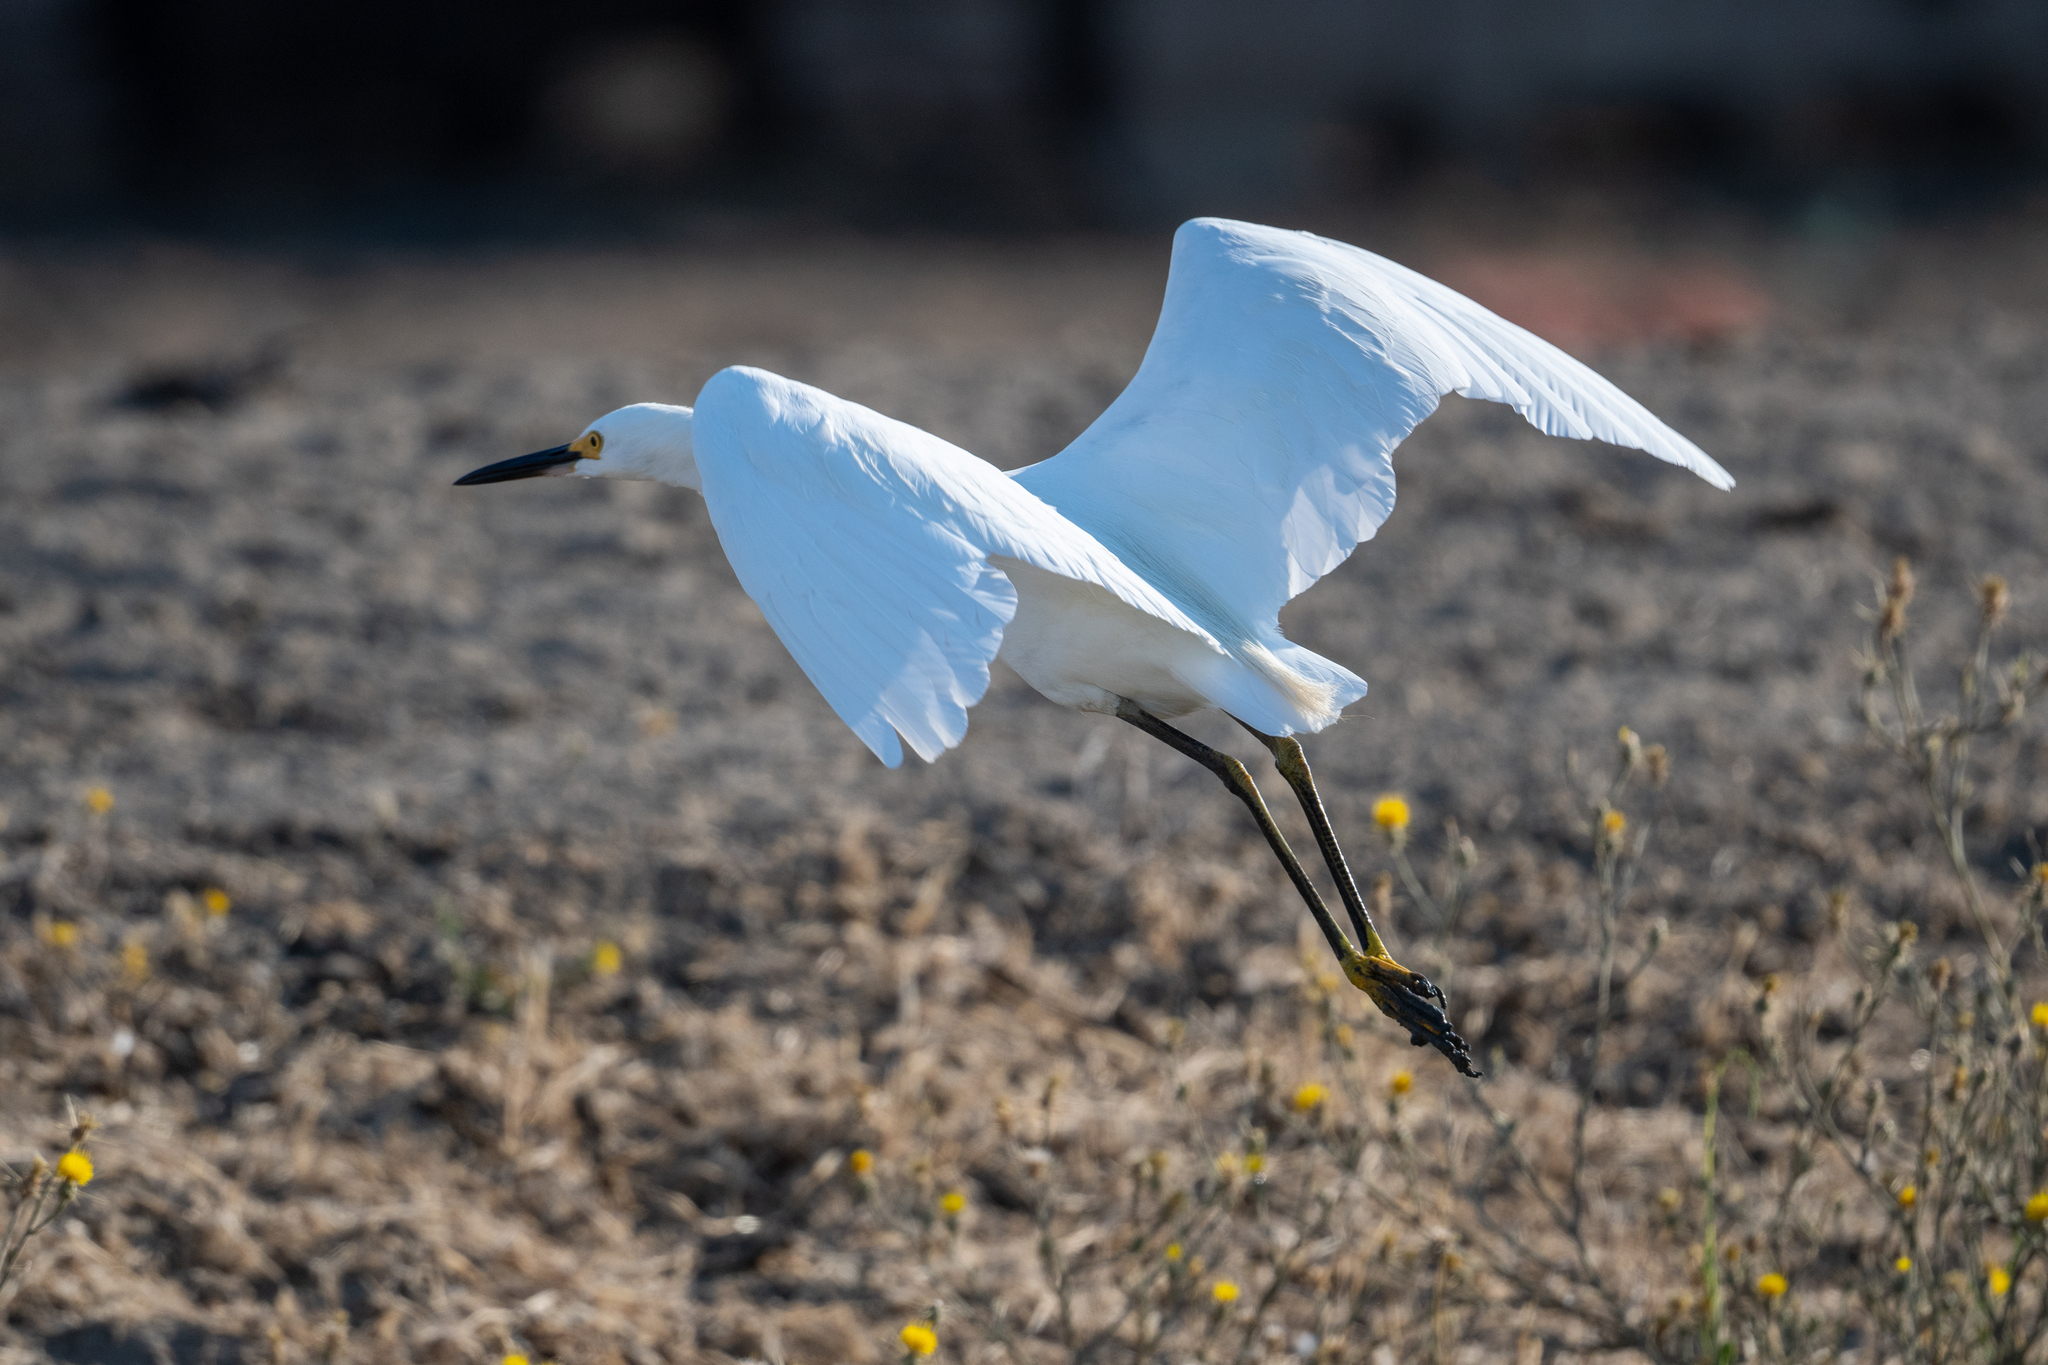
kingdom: Animalia
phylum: Chordata
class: Aves
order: Pelecaniformes
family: Ardeidae
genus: Egretta
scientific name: Egretta thula
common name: Snowy egret
